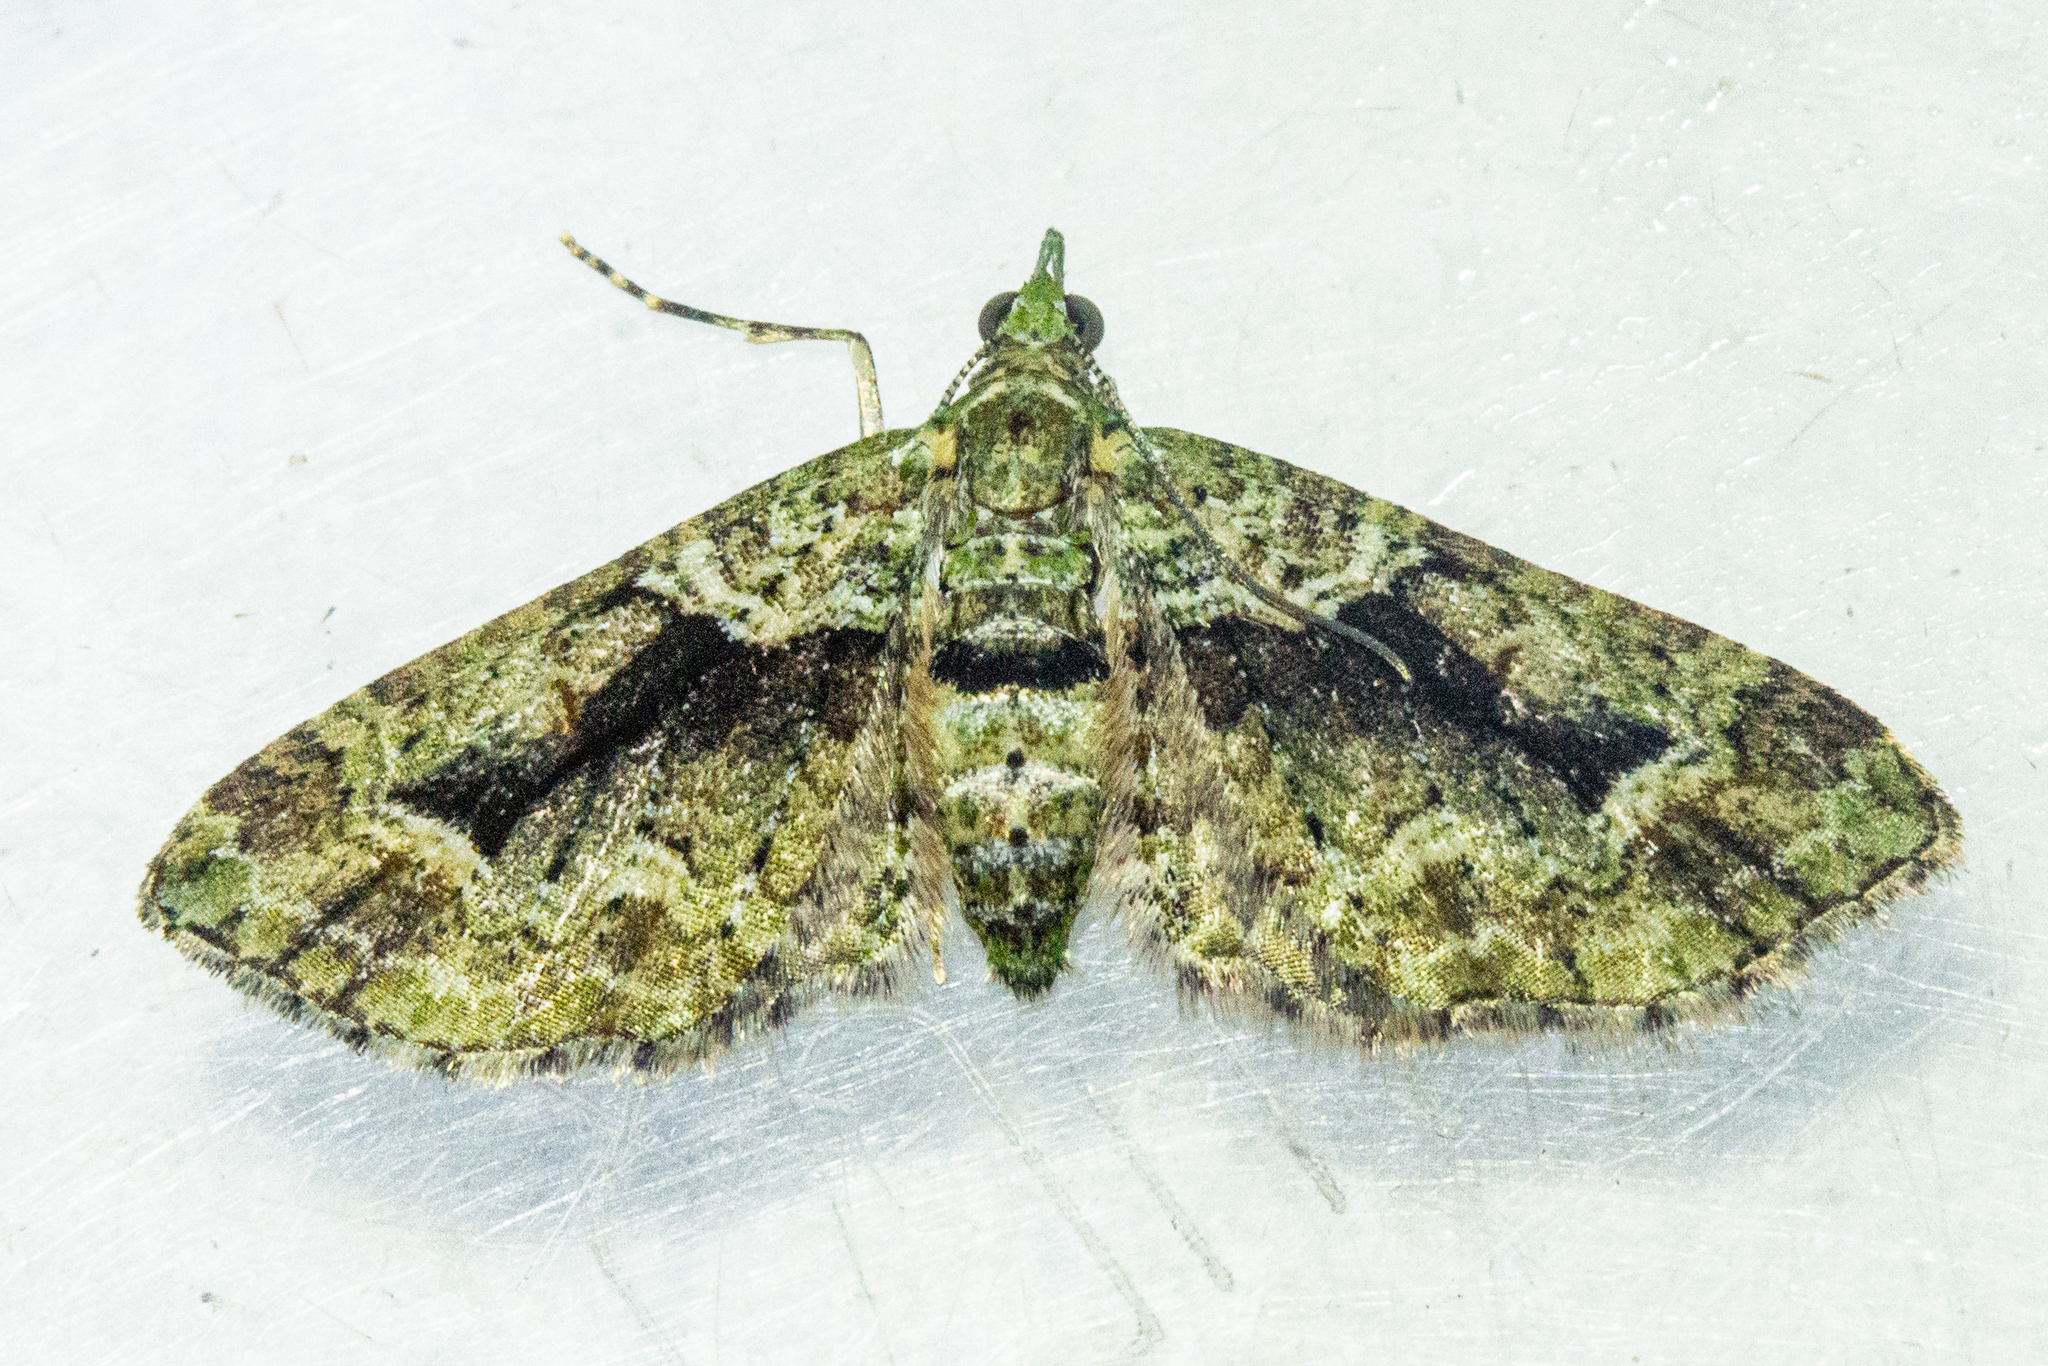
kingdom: Animalia
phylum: Arthropoda
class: Insecta
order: Lepidoptera
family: Geometridae
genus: Pasiphila
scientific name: Pasiphila suffusa
